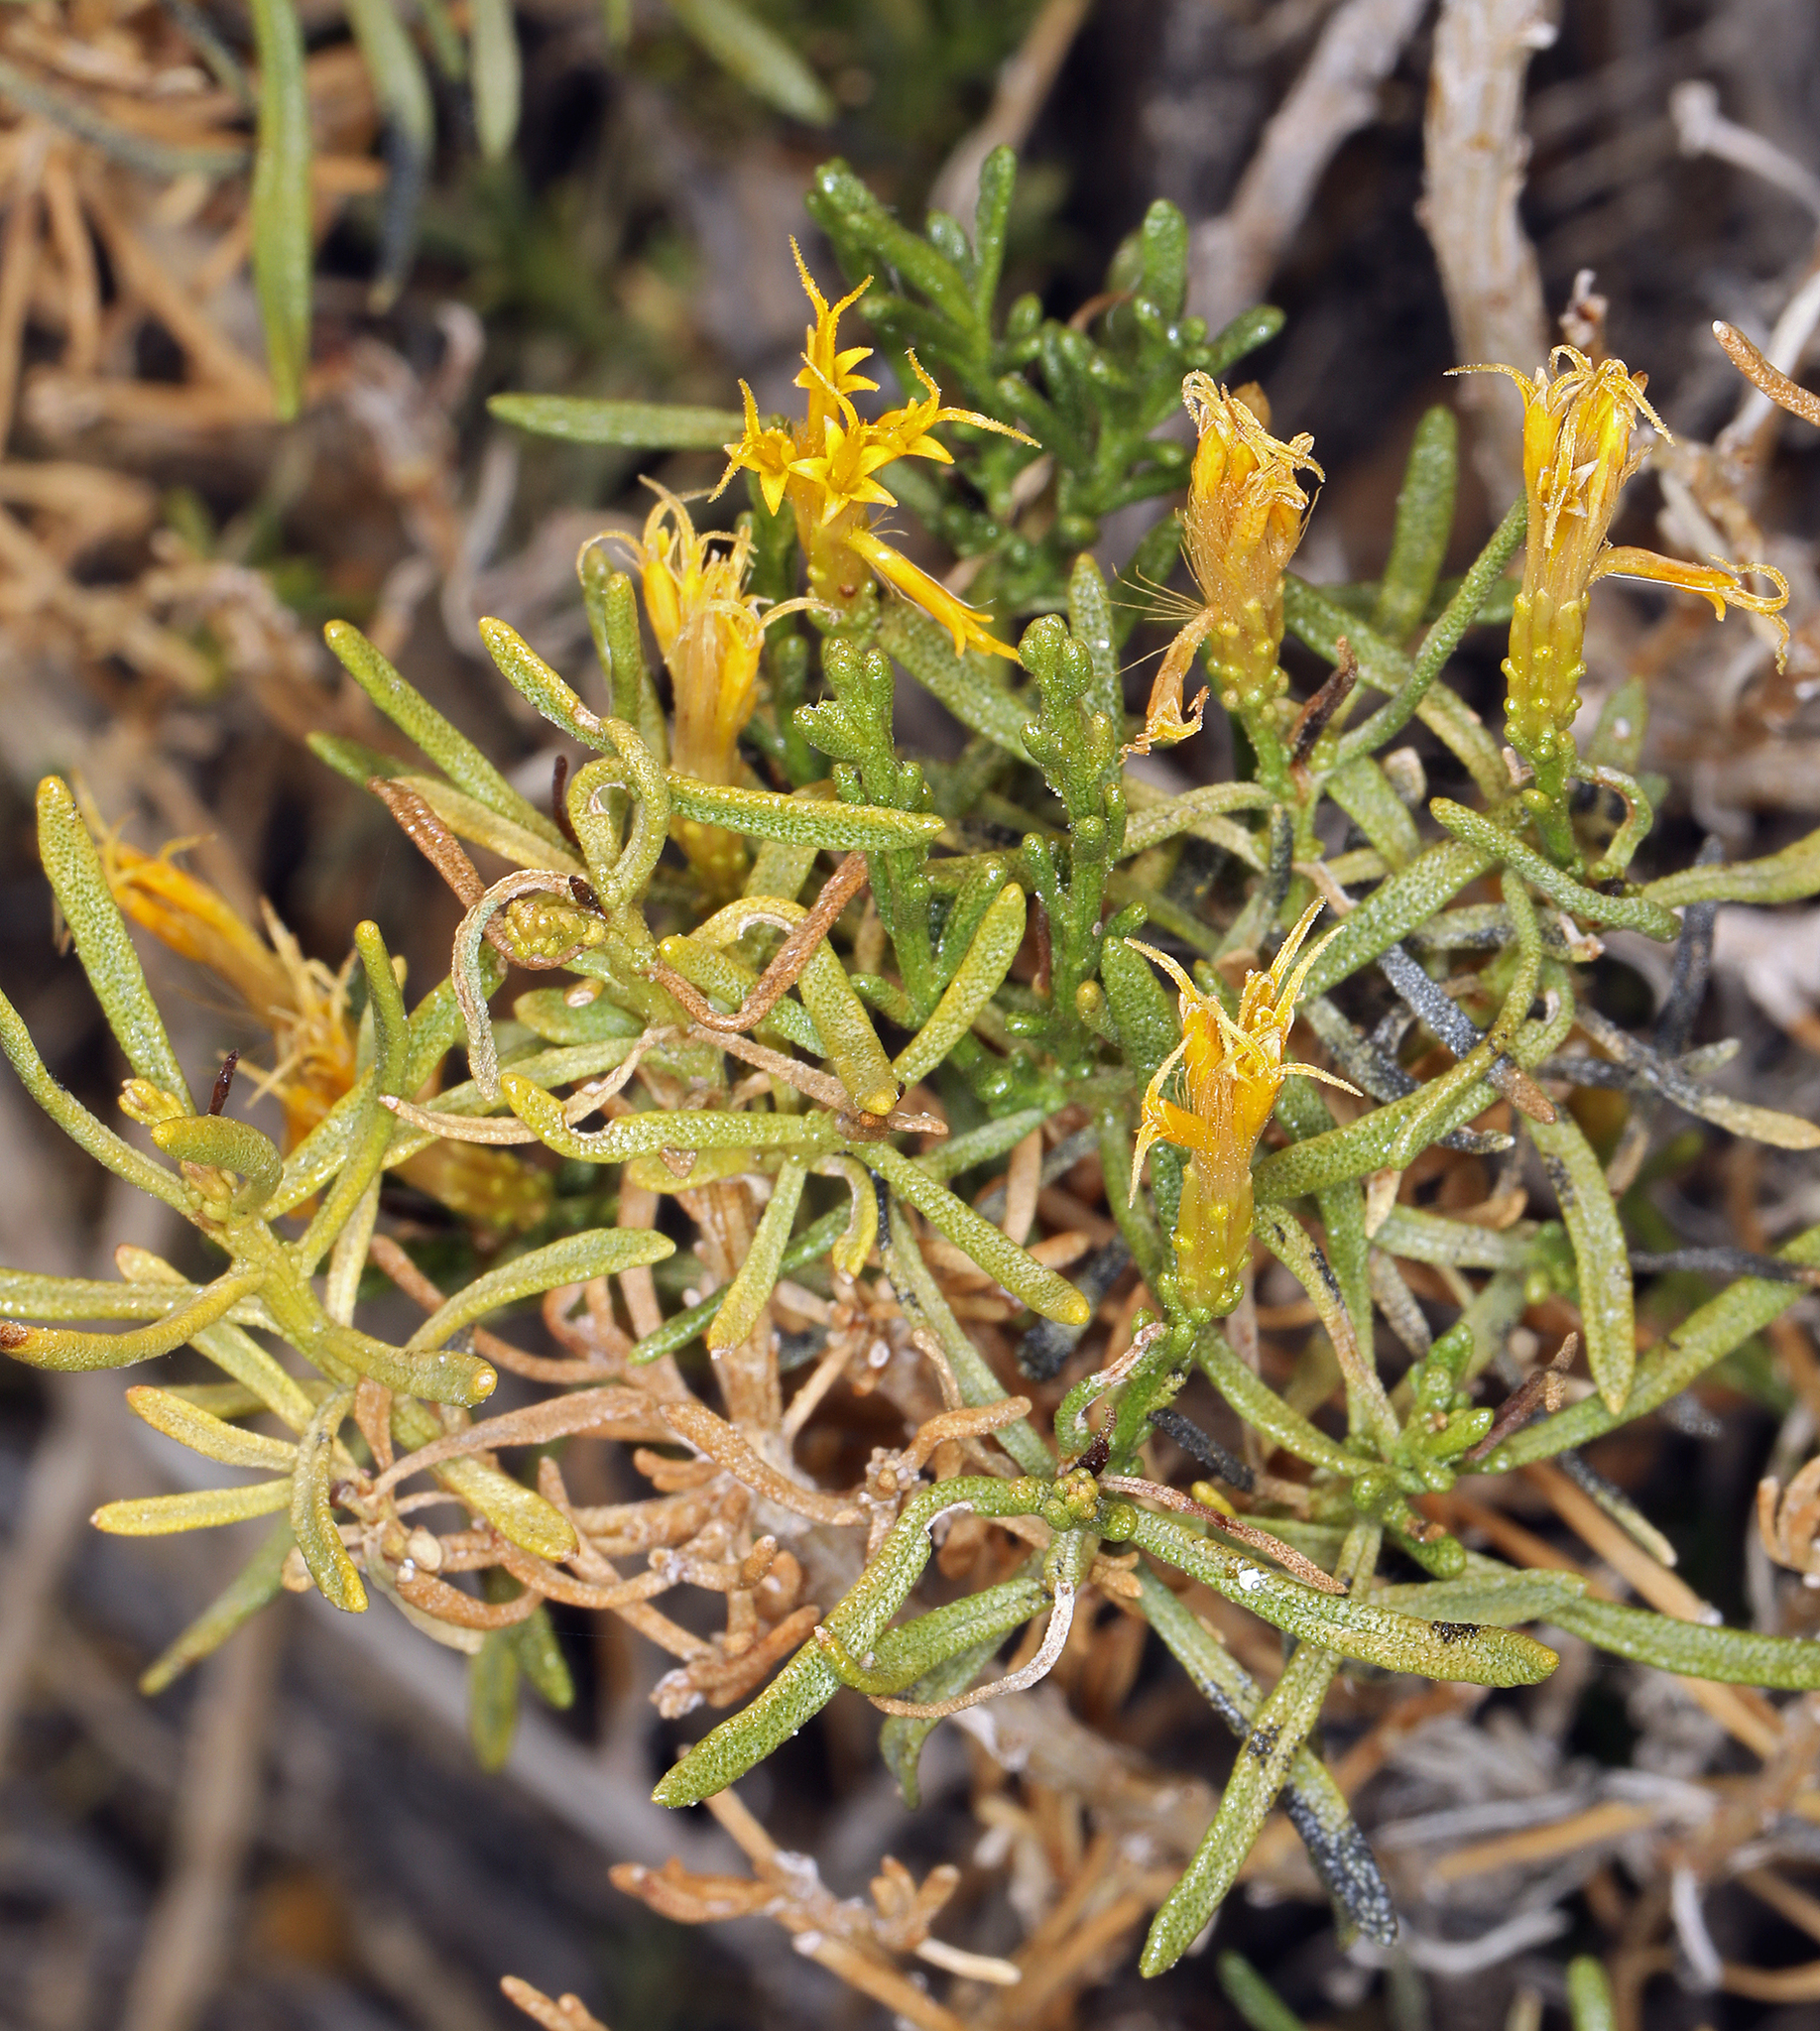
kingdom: Plantae
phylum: Tracheophyta
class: Magnoliopsida
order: Asterales
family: Asteraceae
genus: Ericameria
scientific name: Ericameria teretifolia
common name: Round-leaf rabbitbrush
